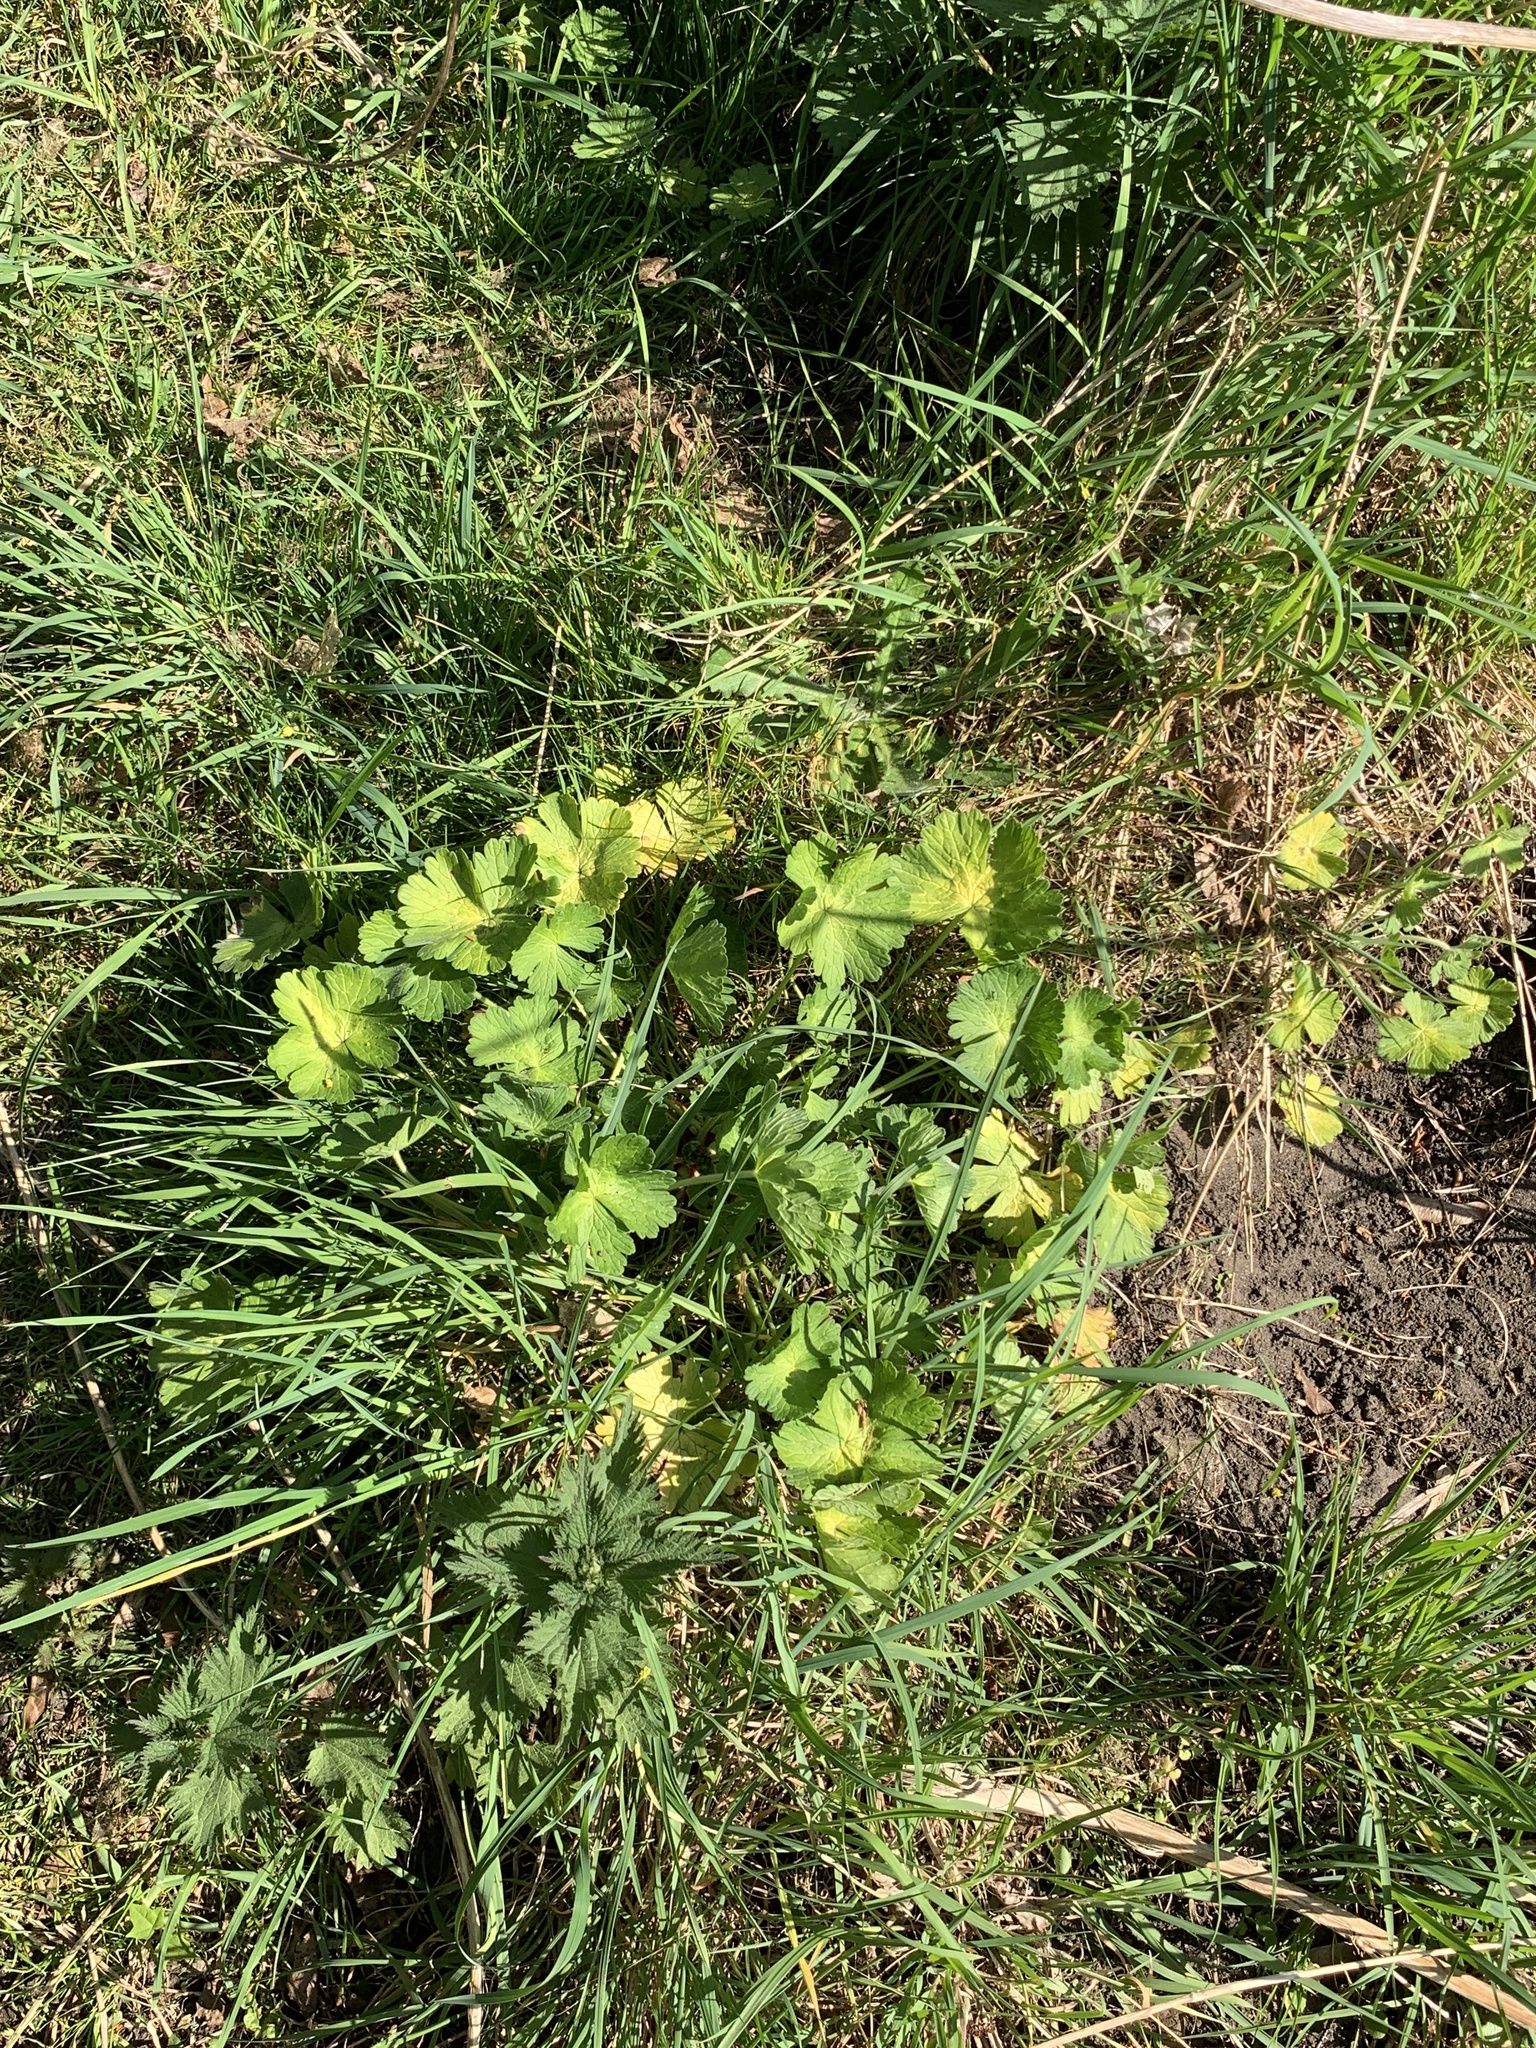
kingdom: Plantae
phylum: Tracheophyta
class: Magnoliopsida
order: Geraniales
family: Geraniaceae
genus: Geranium
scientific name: Geranium pyrenaicum
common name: Hedgerow crane's-bill
